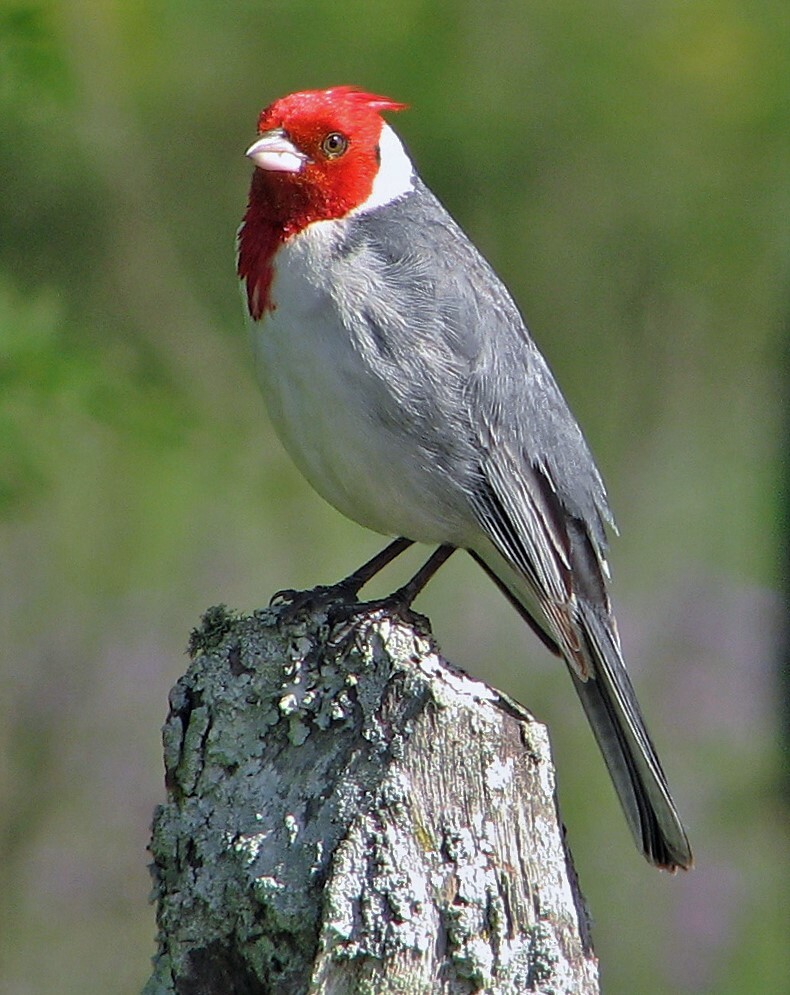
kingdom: Animalia
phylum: Chordata
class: Aves
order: Passeriformes
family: Thraupidae
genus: Paroaria
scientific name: Paroaria coronata
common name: Red-crested cardinal
